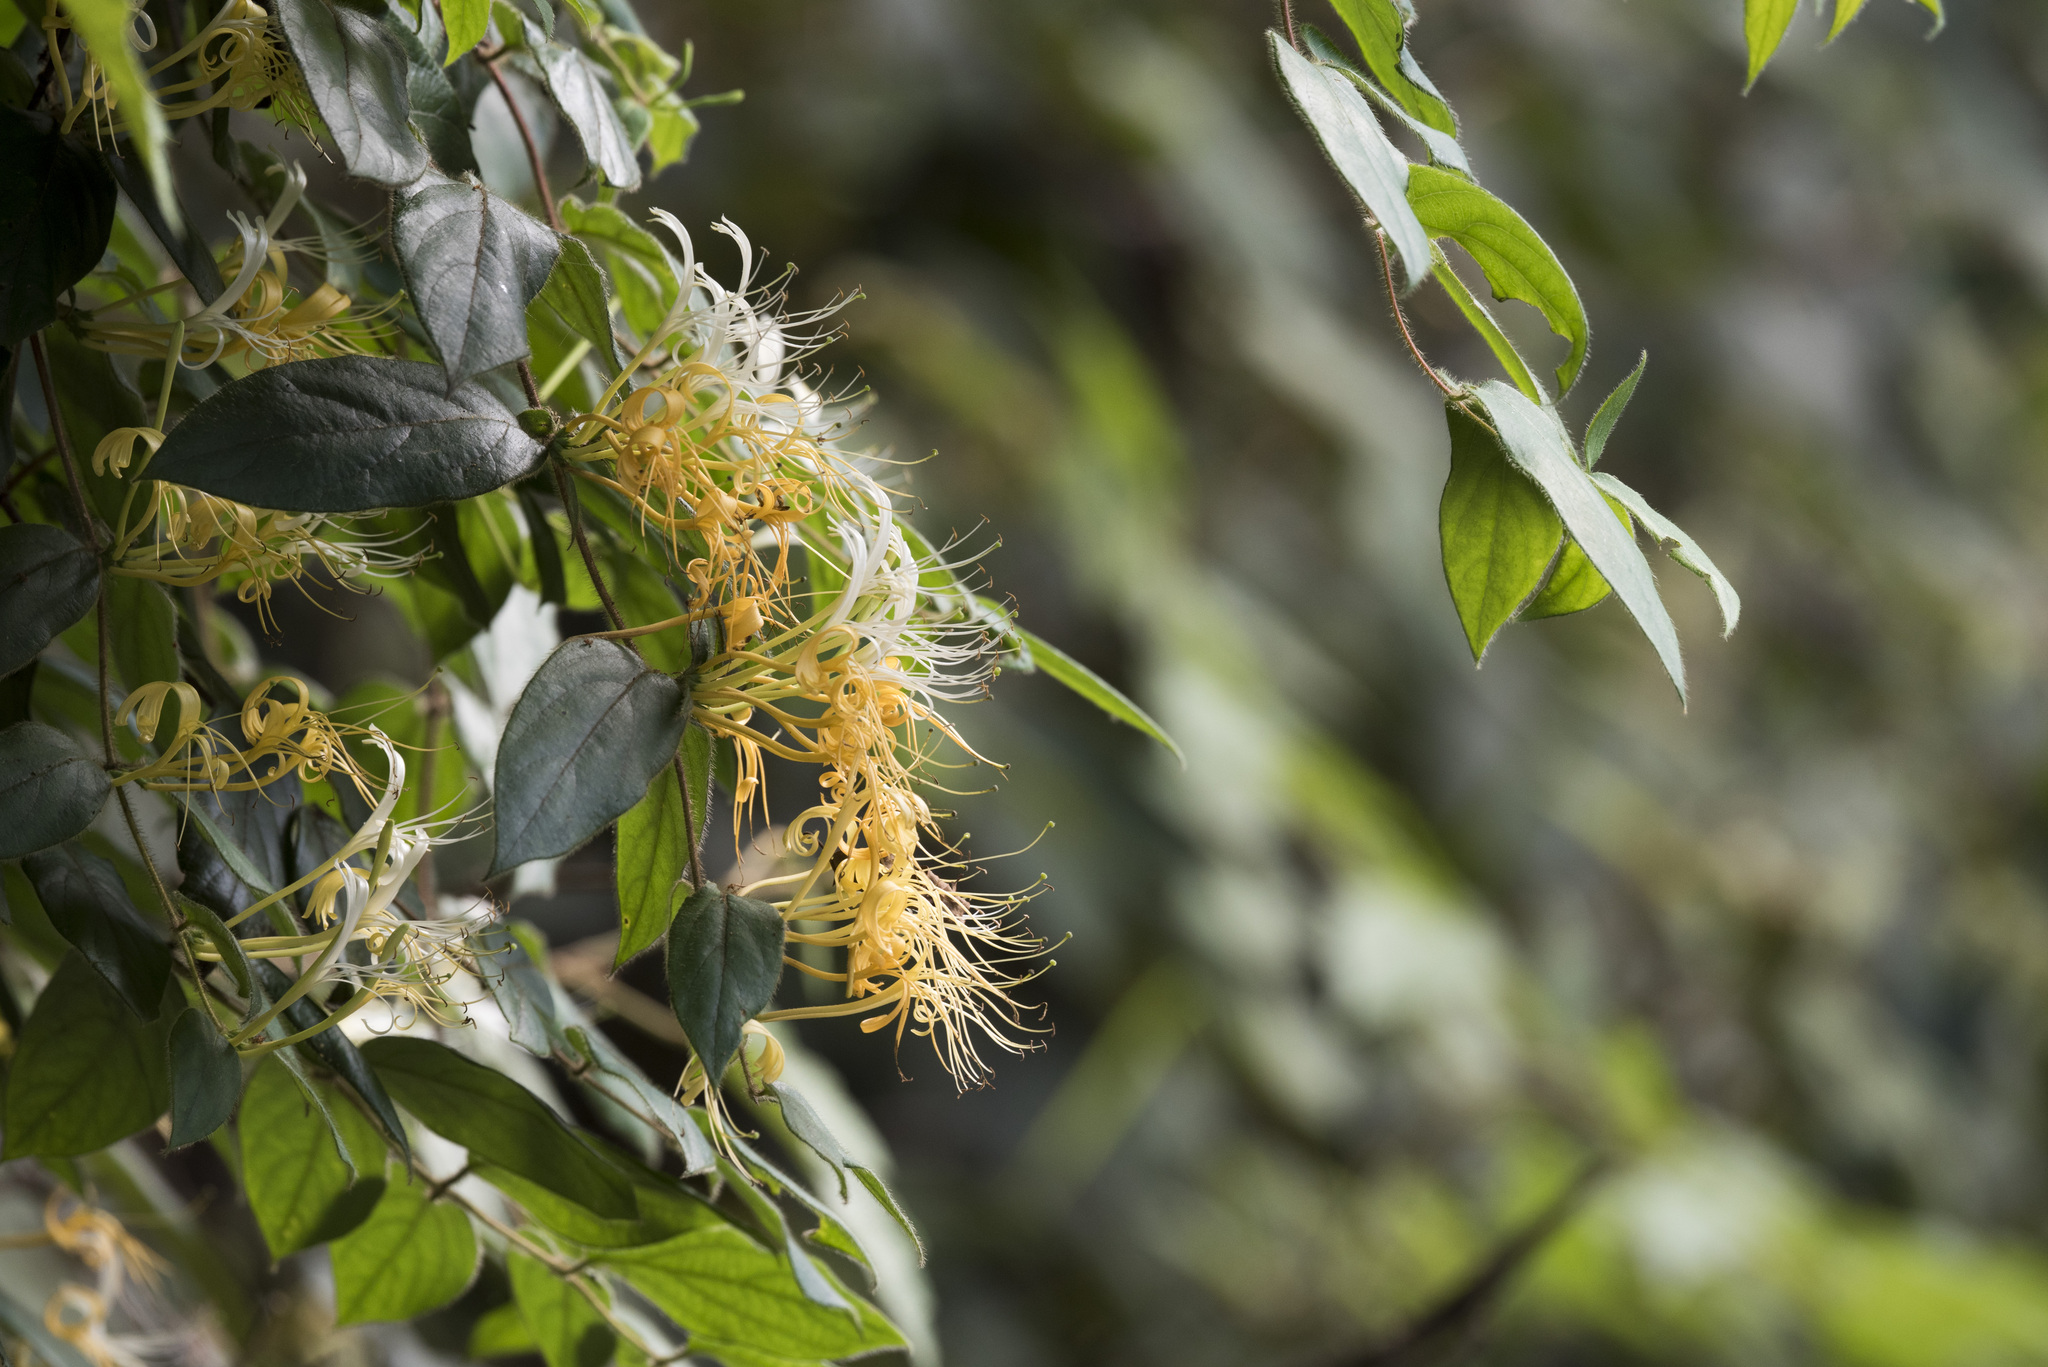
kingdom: Plantae
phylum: Tracheophyta
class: Magnoliopsida
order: Dipsacales
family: Caprifoliaceae
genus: Lonicera
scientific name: Lonicera macrantha
